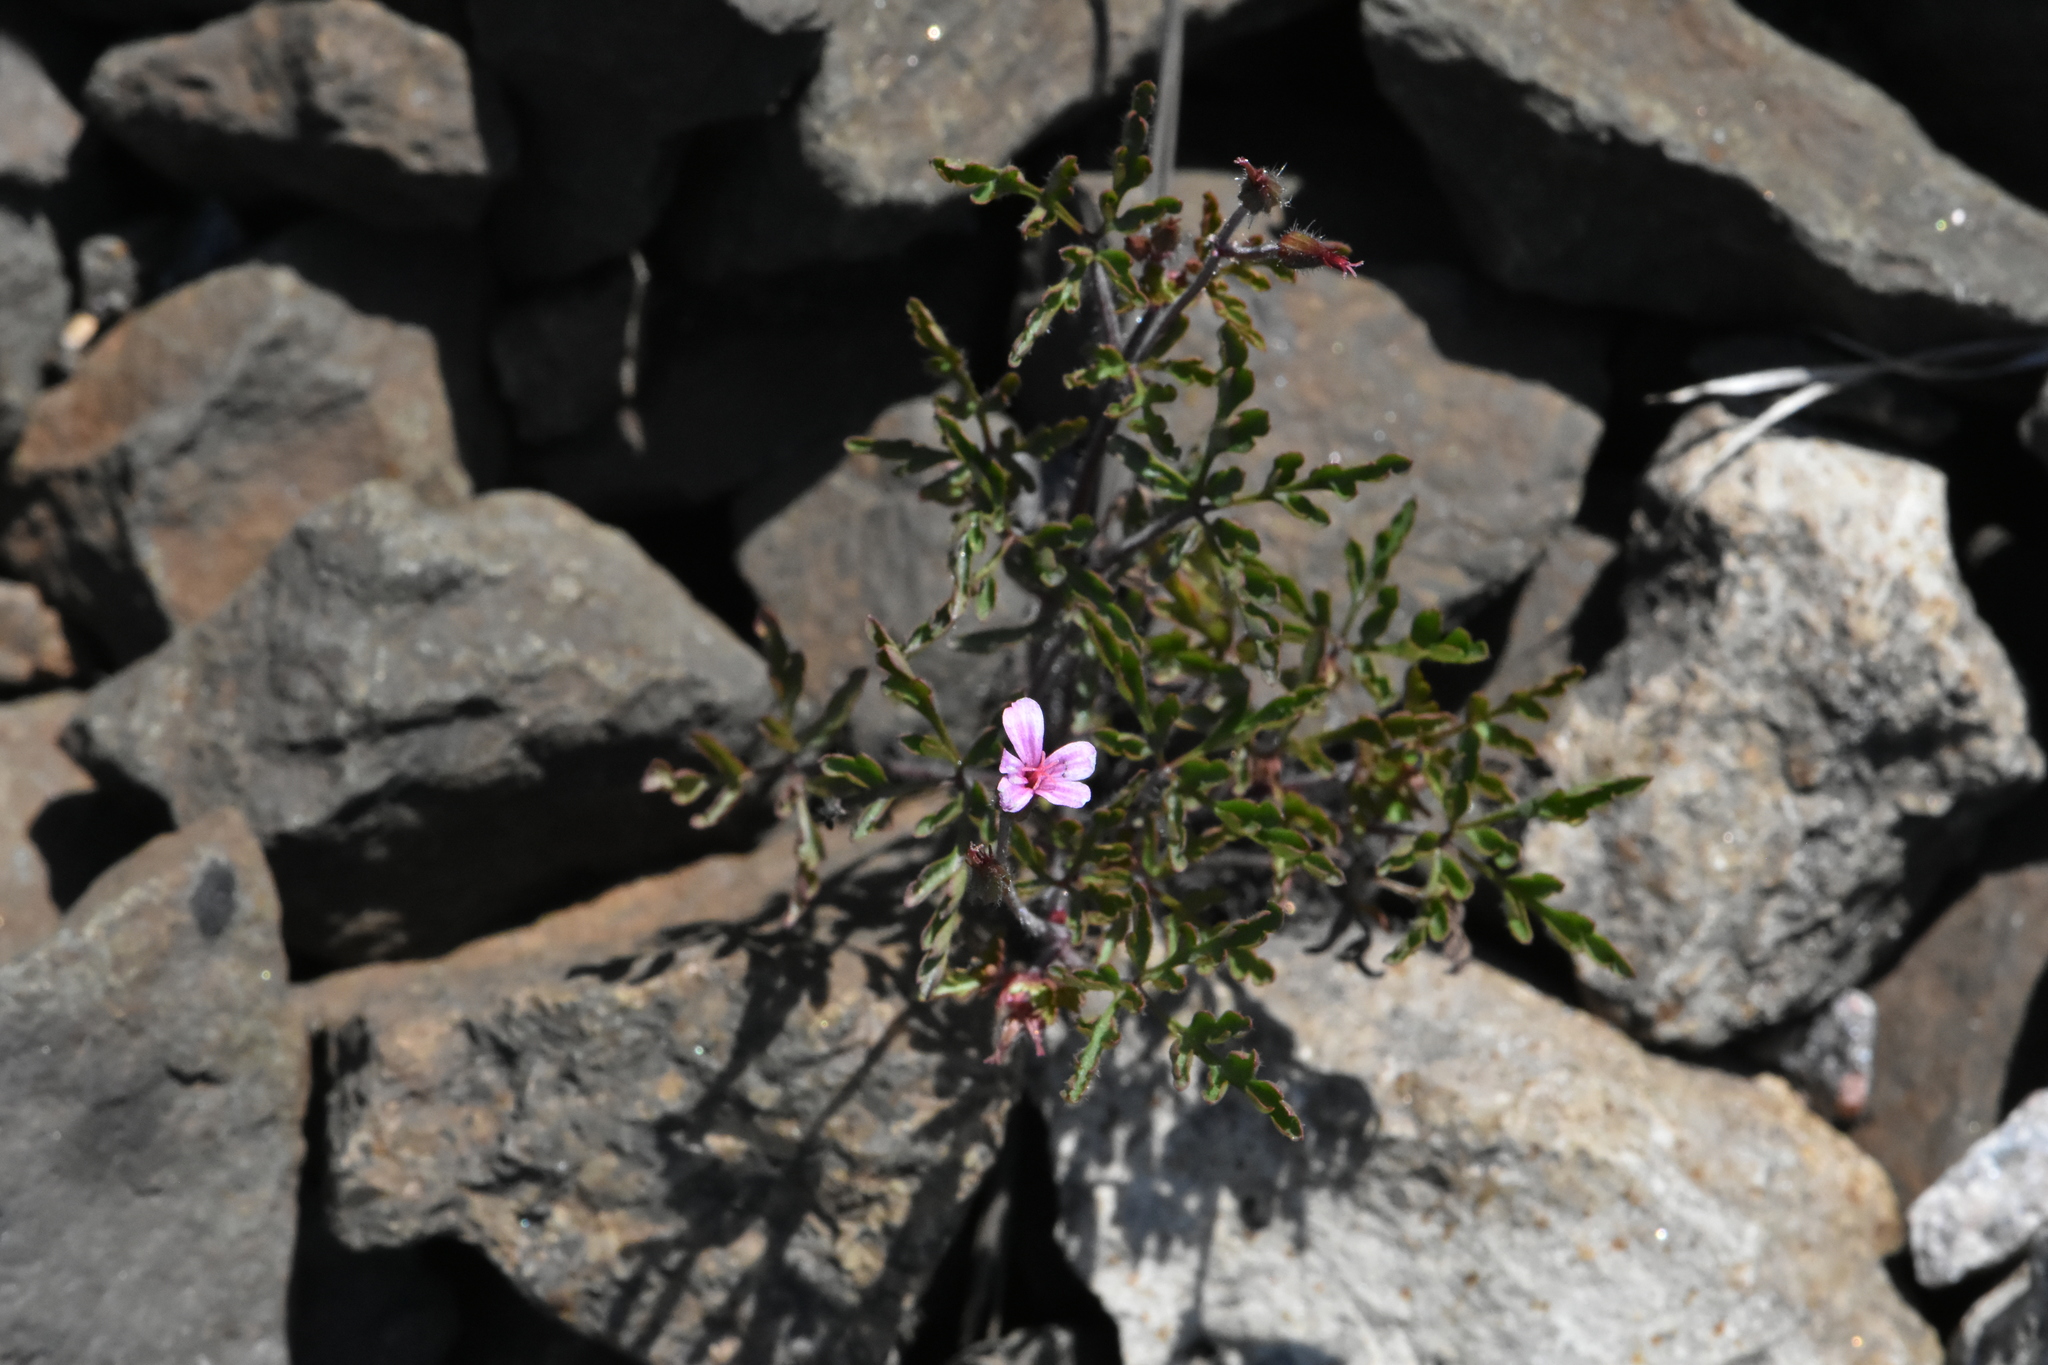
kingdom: Plantae
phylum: Tracheophyta
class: Magnoliopsida
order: Geraniales
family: Geraniaceae
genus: Geranium
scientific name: Geranium robertianum
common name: Herb-robert
